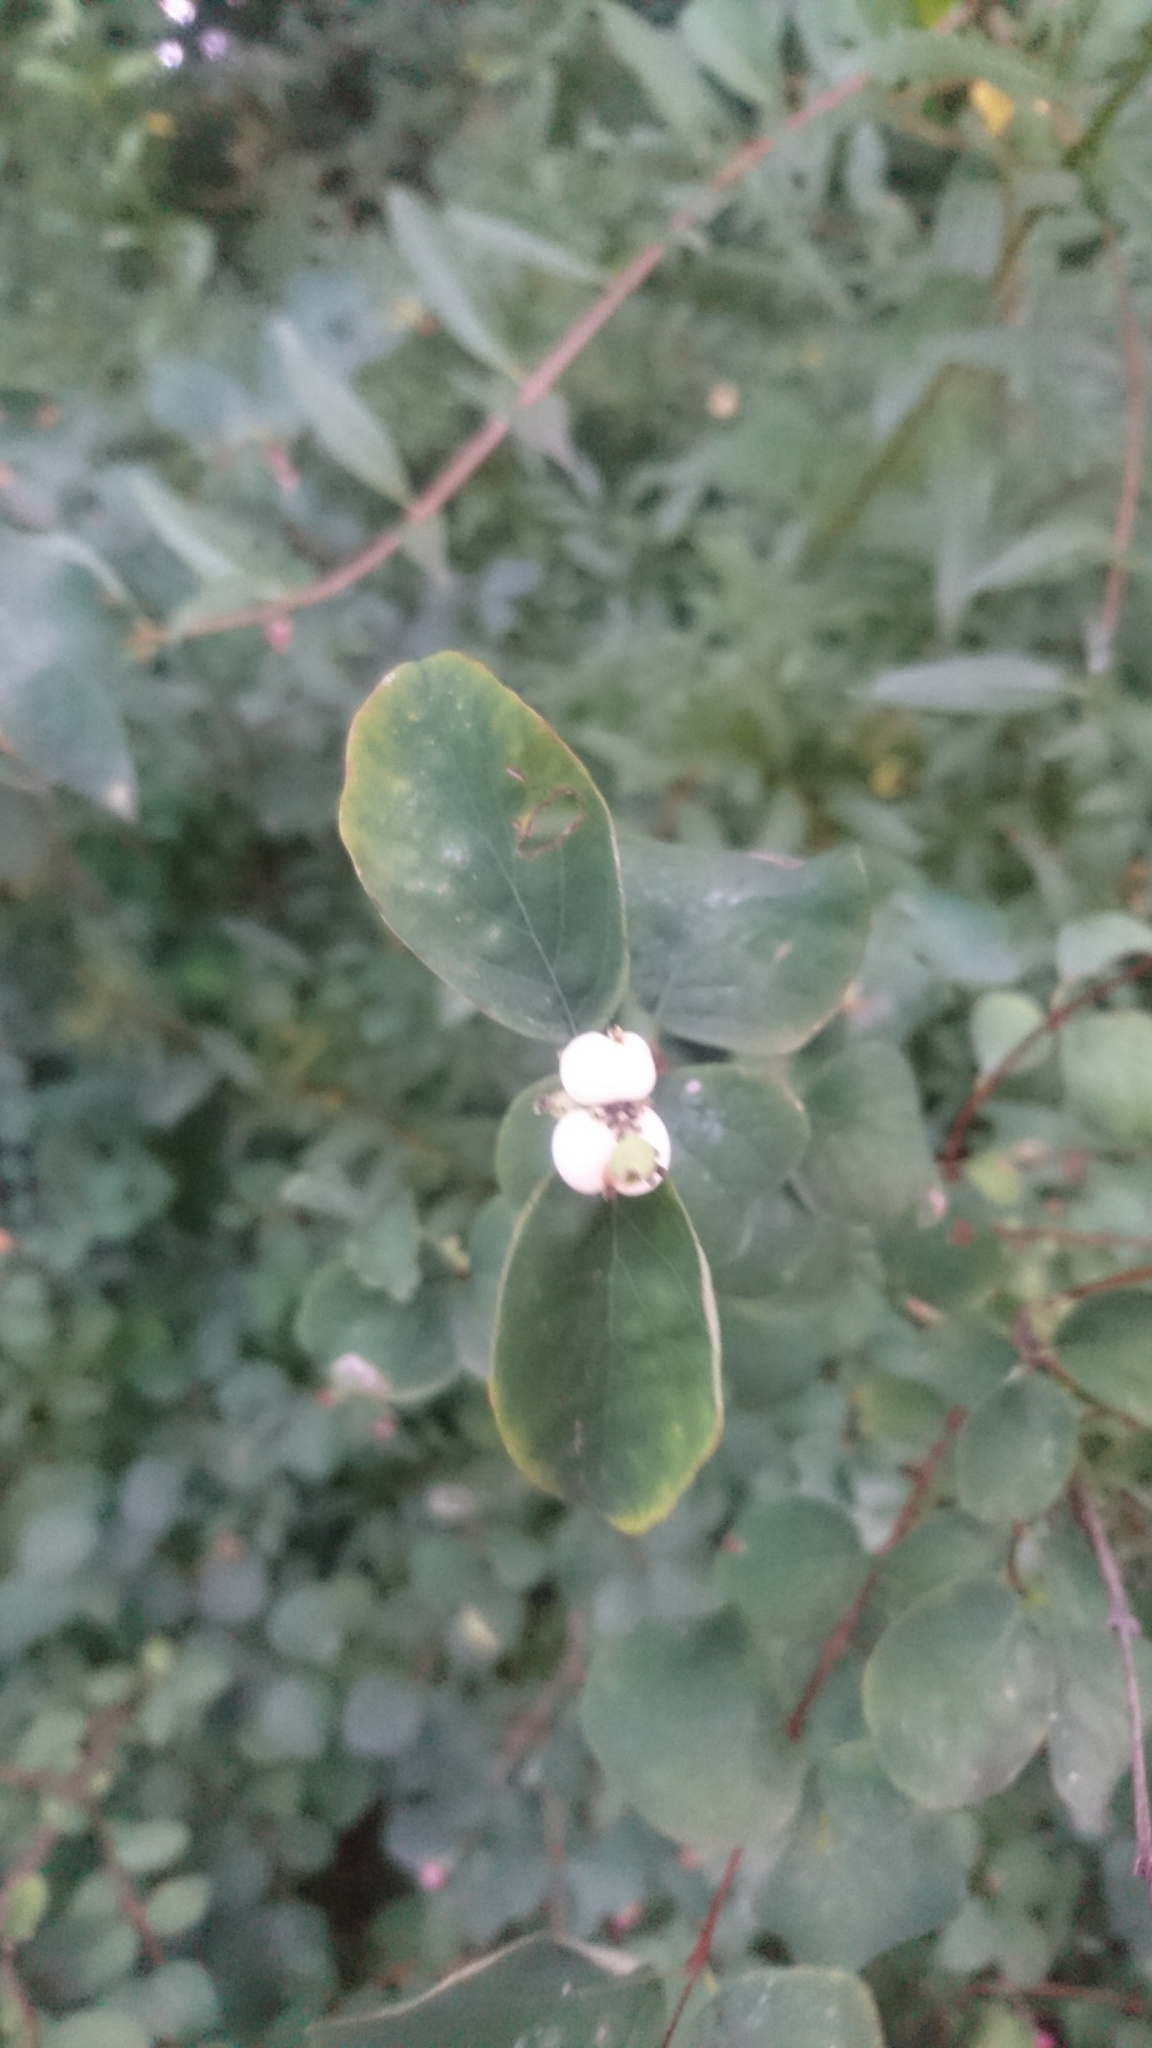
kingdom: Plantae
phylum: Tracheophyta
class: Magnoliopsida
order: Dipsacales
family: Caprifoliaceae
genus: Symphoricarpos
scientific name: Symphoricarpos albus
